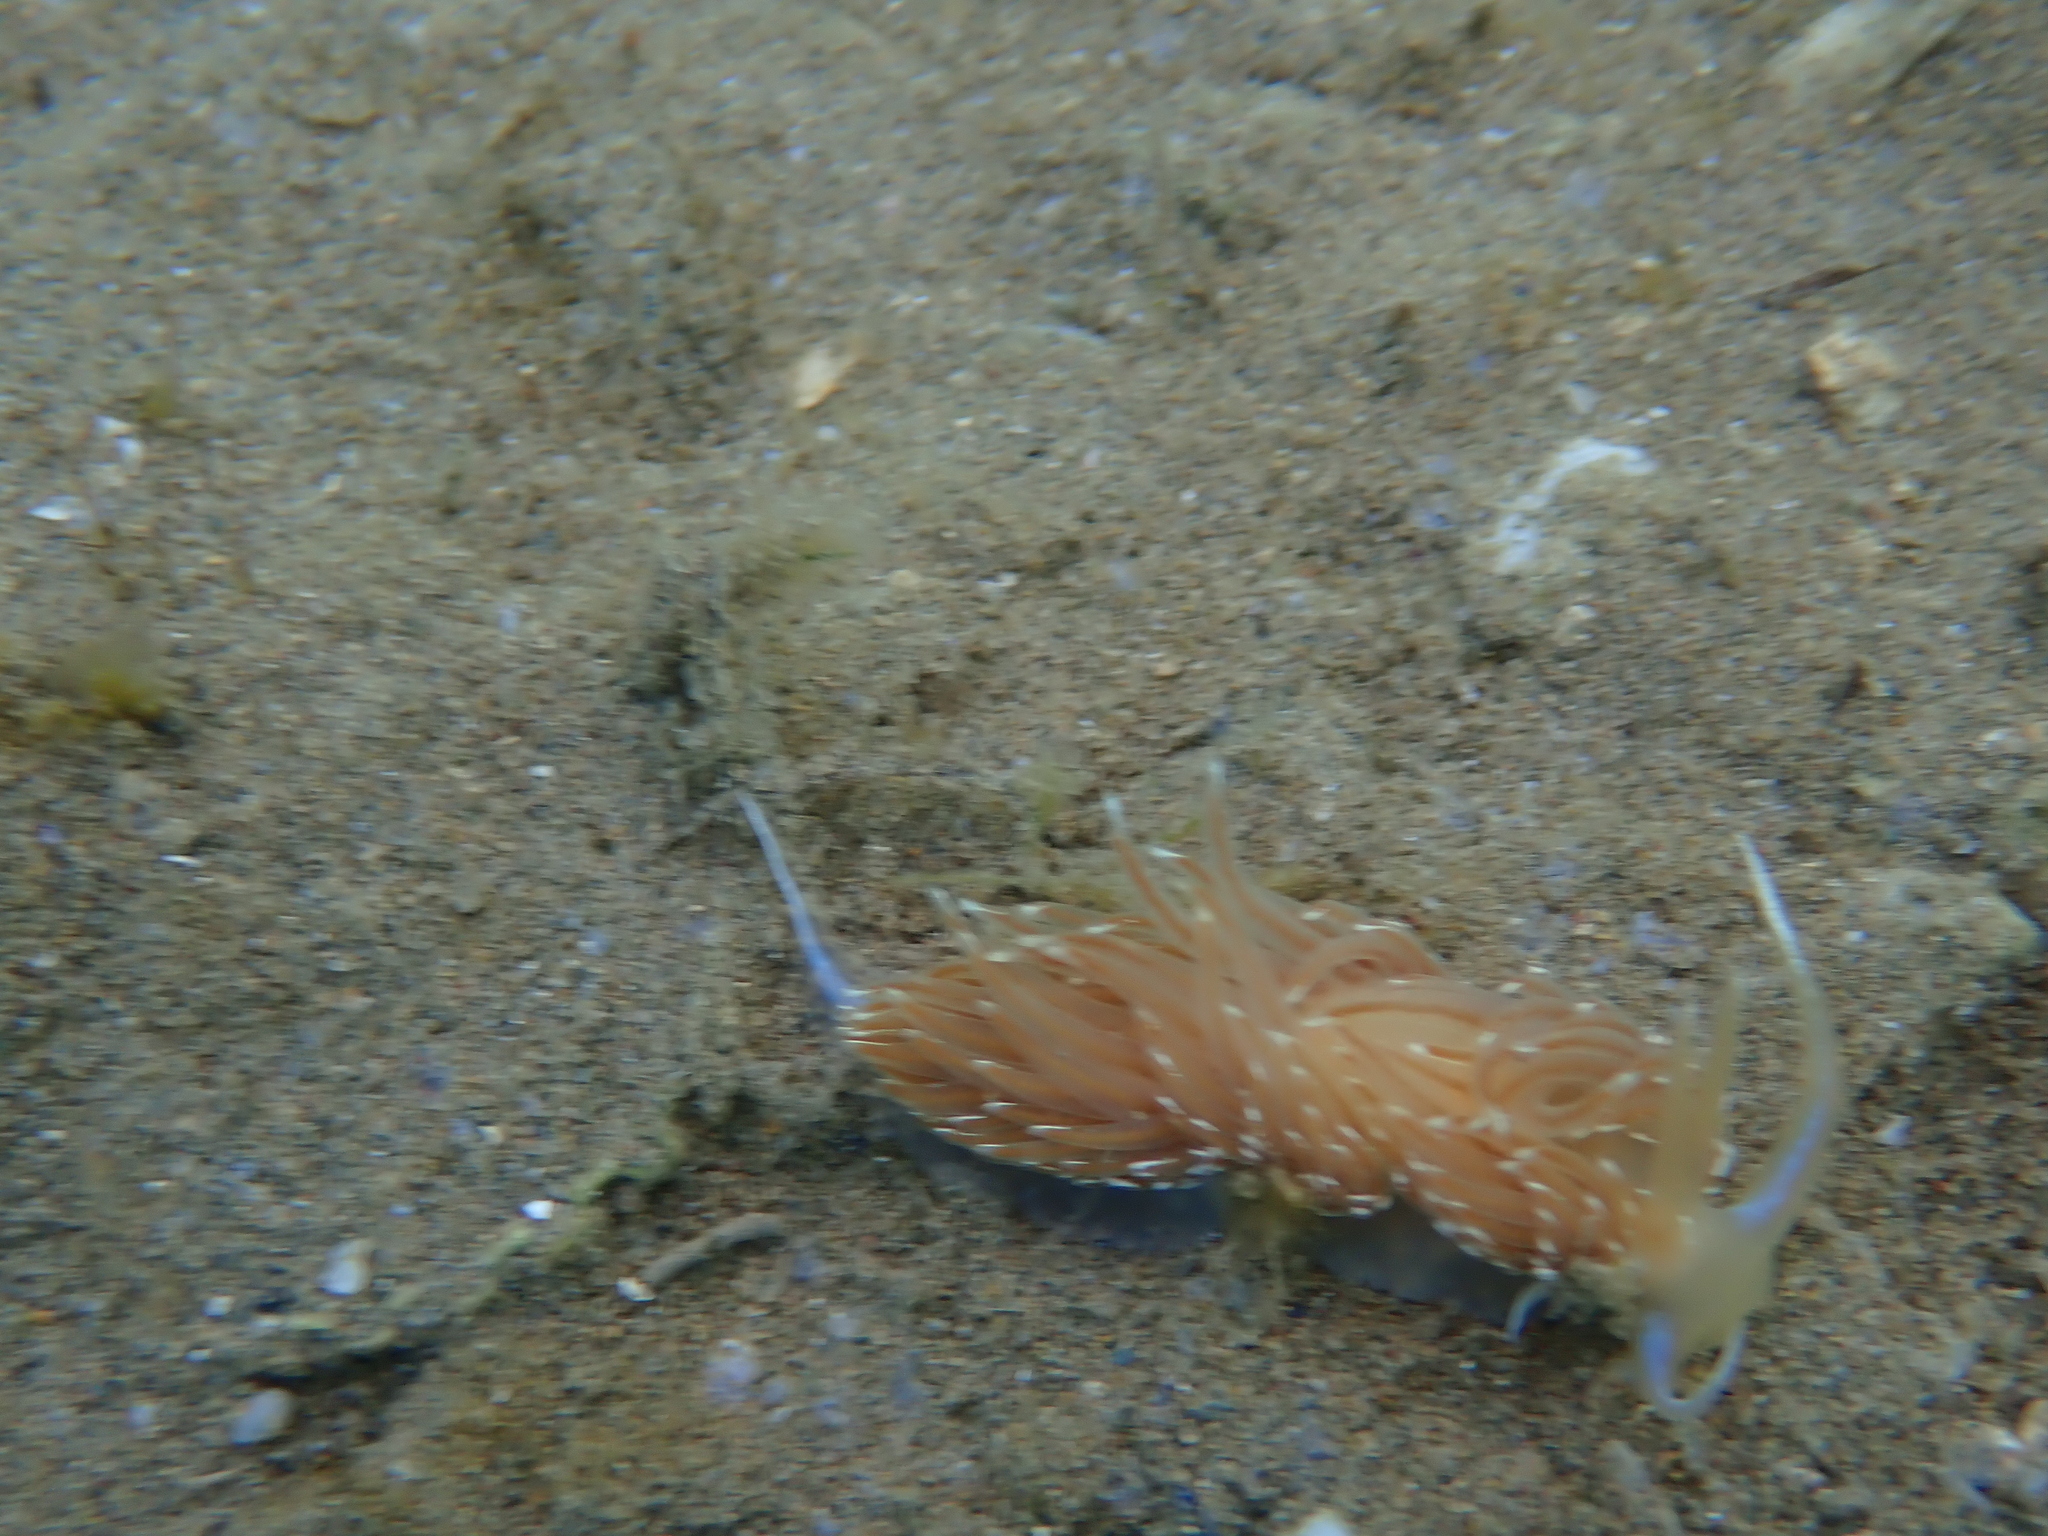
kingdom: Animalia
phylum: Mollusca
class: Gastropoda
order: Nudibranchia
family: Facelinidae
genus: Facelina
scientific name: Facelina vicina
